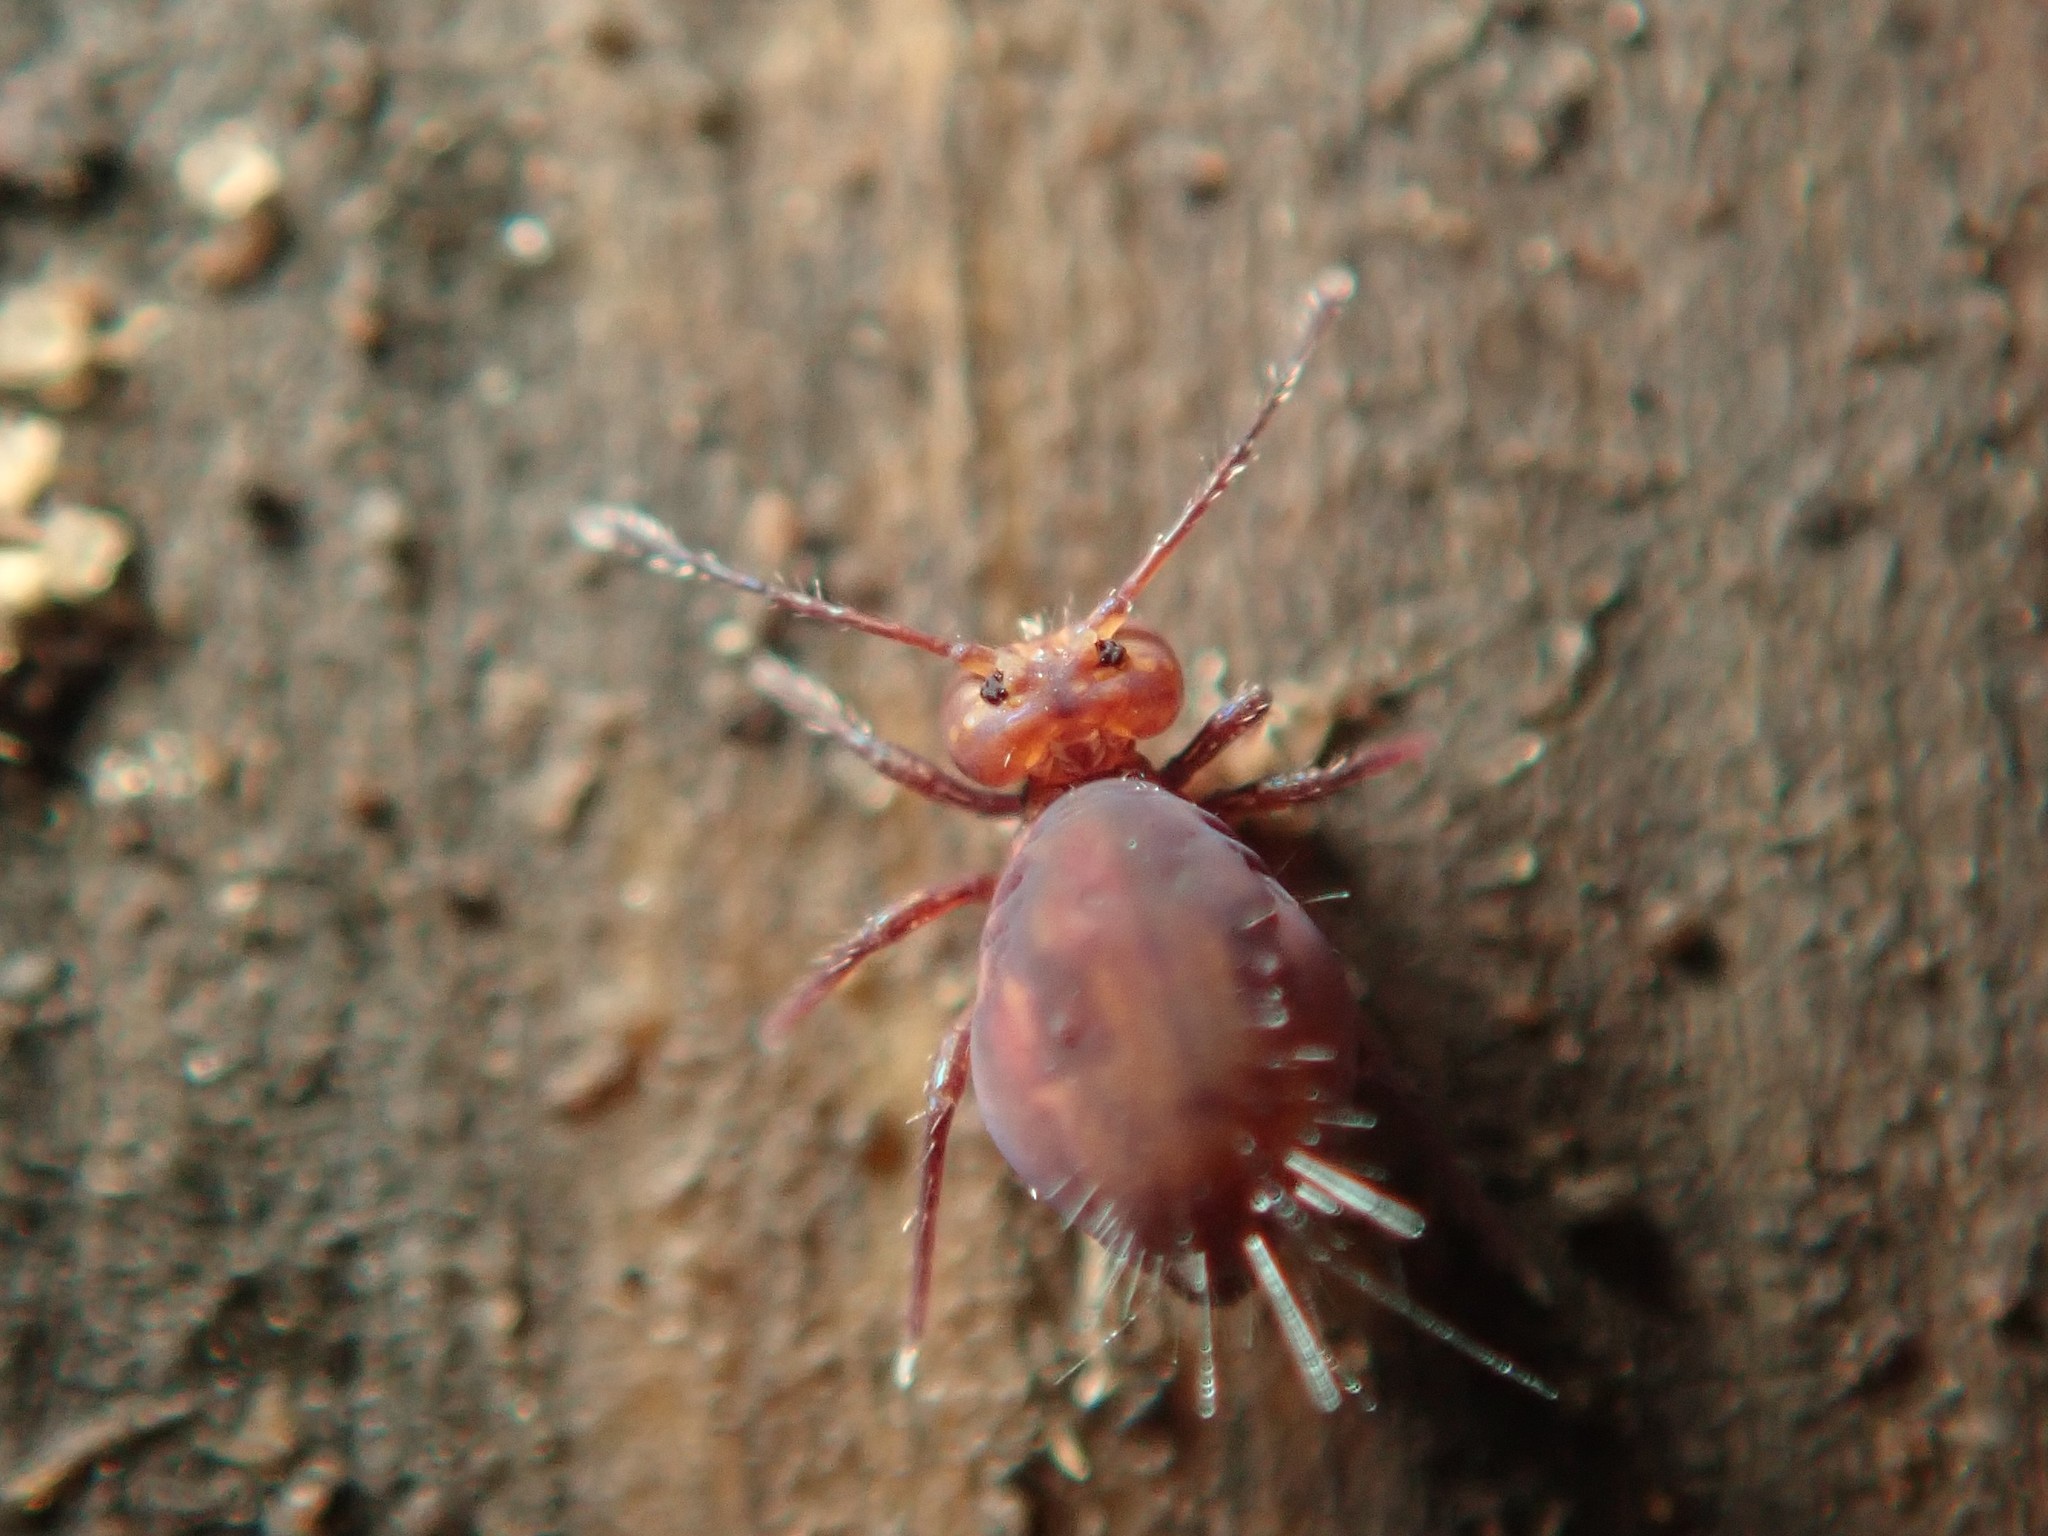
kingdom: Animalia
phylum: Arthropoda
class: Collembola
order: Symphypleona
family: Dicyrtomidae
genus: Dicyrtoma
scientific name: Dicyrtoma fusca
